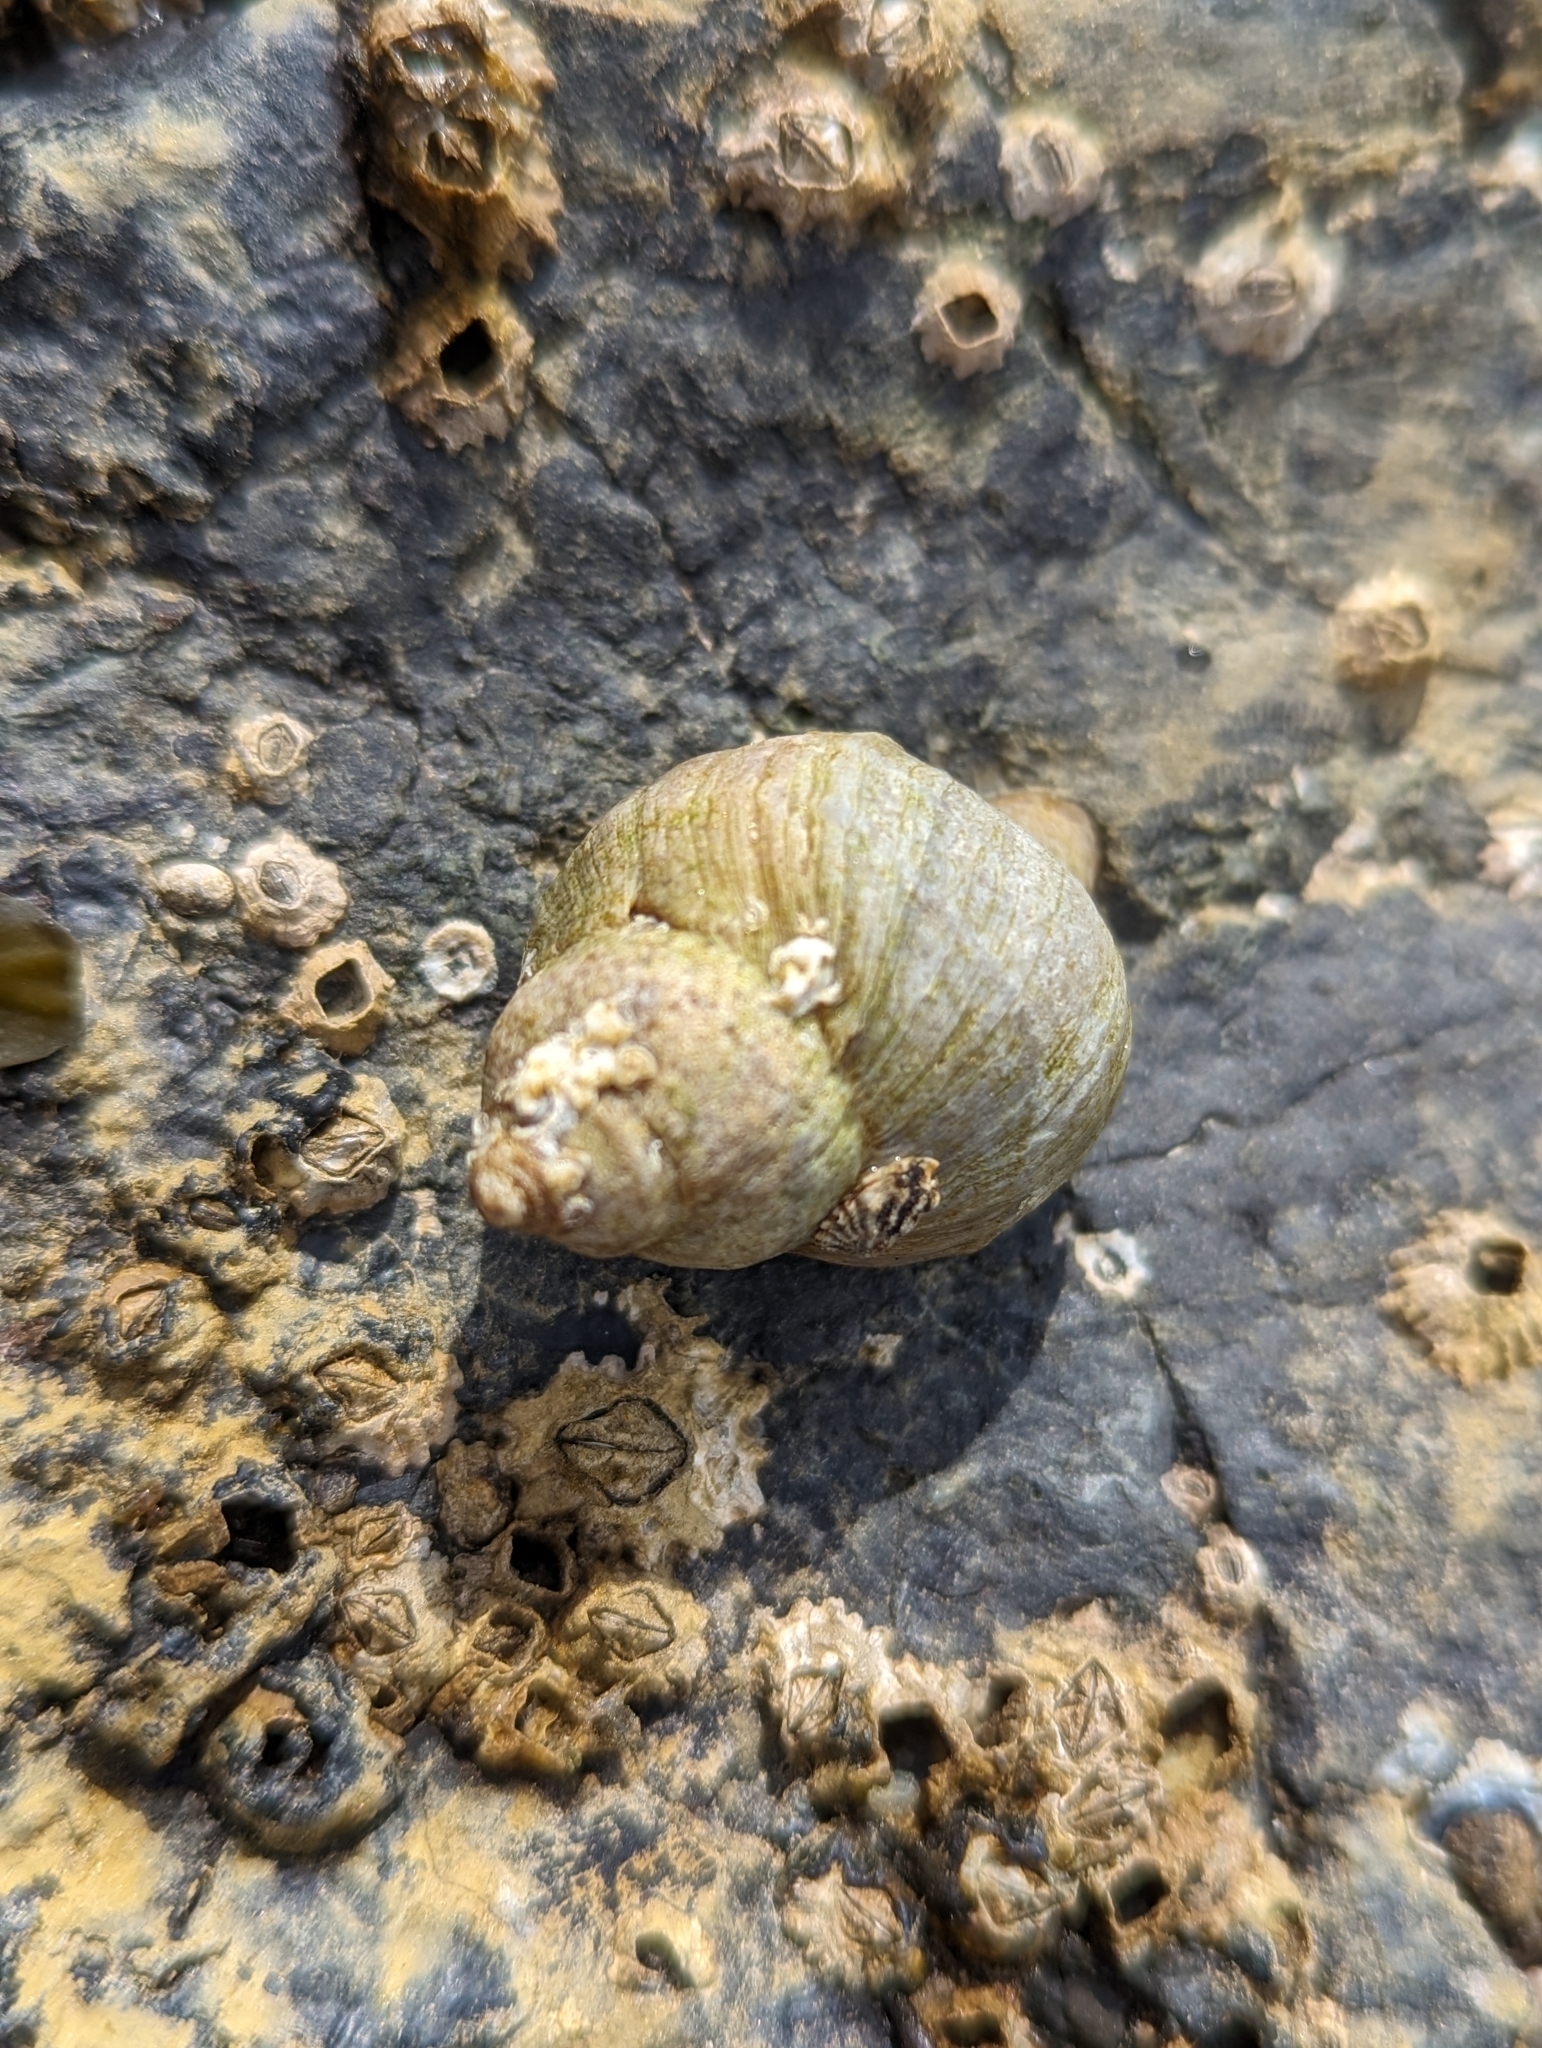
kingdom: Animalia
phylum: Mollusca
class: Gastropoda
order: Neogastropoda
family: Muricidae
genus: Nucella
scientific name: Nucella lamellosa
